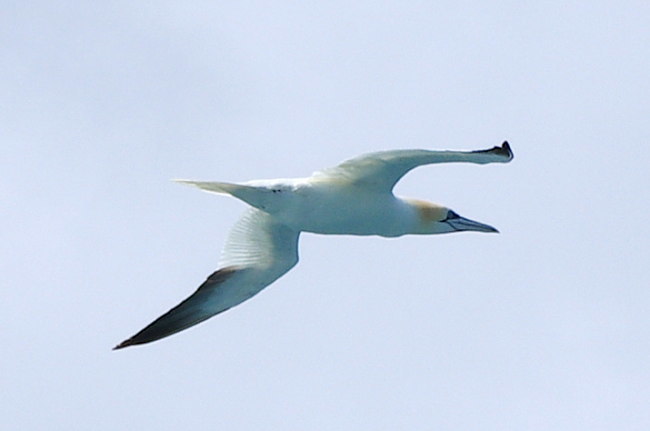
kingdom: Animalia
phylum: Chordata
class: Aves
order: Suliformes
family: Sulidae
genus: Morus
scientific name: Morus bassanus
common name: Northern gannet
